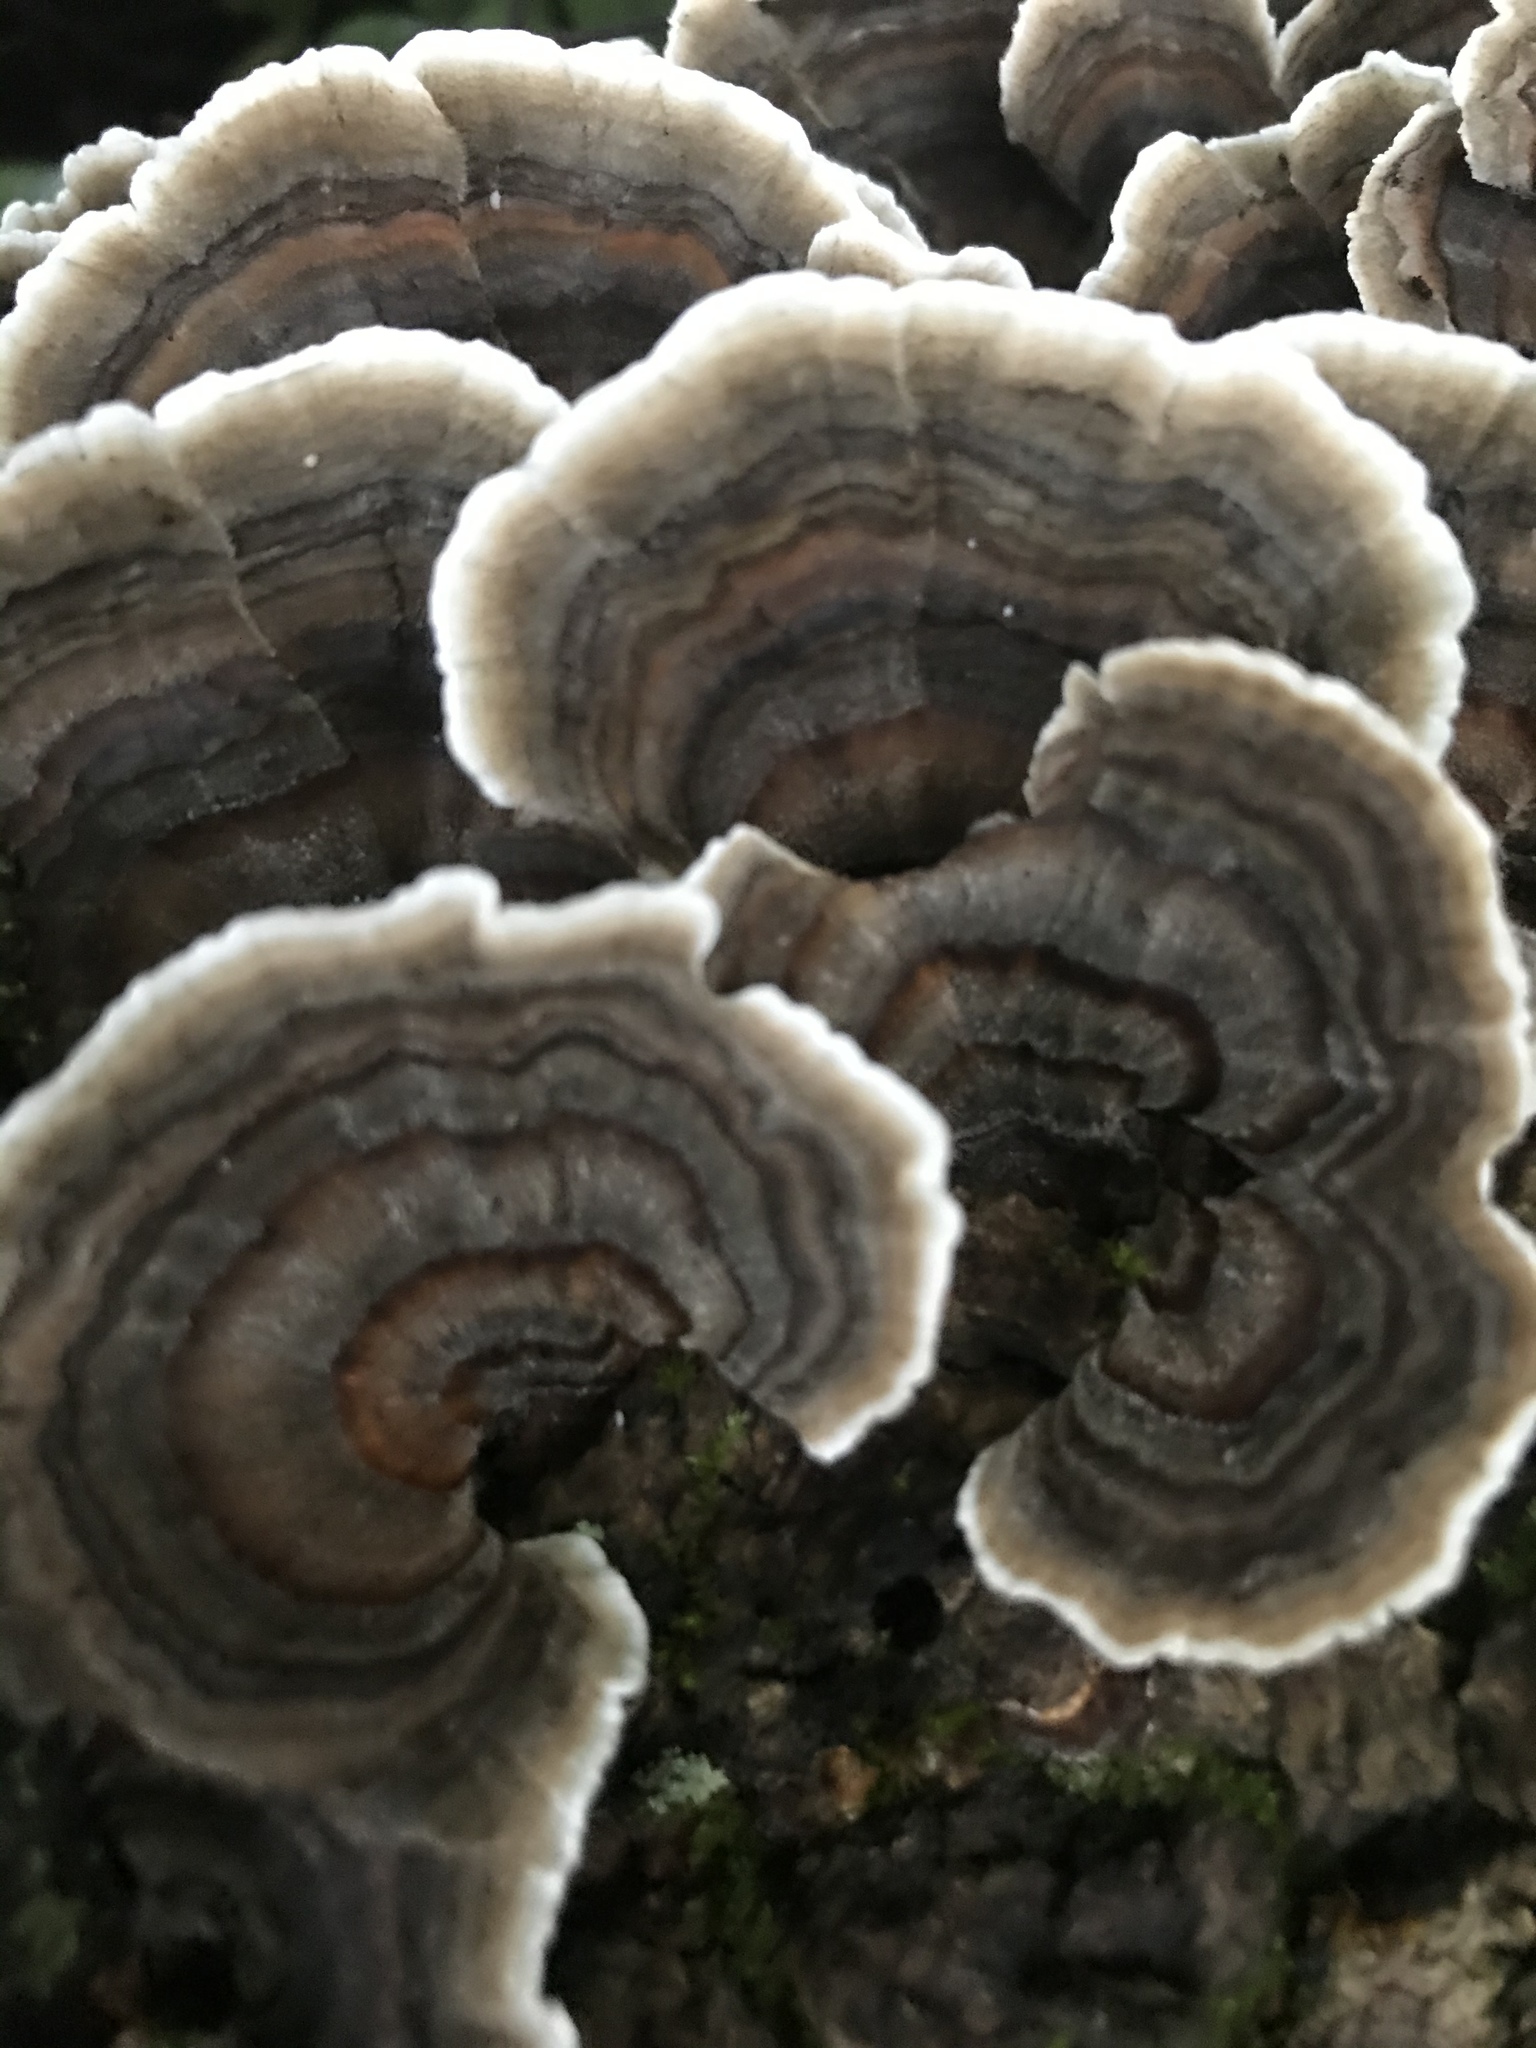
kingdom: Fungi
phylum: Basidiomycota
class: Agaricomycetes
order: Polyporales
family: Polyporaceae
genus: Trametes
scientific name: Trametes versicolor
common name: Turkeytail
